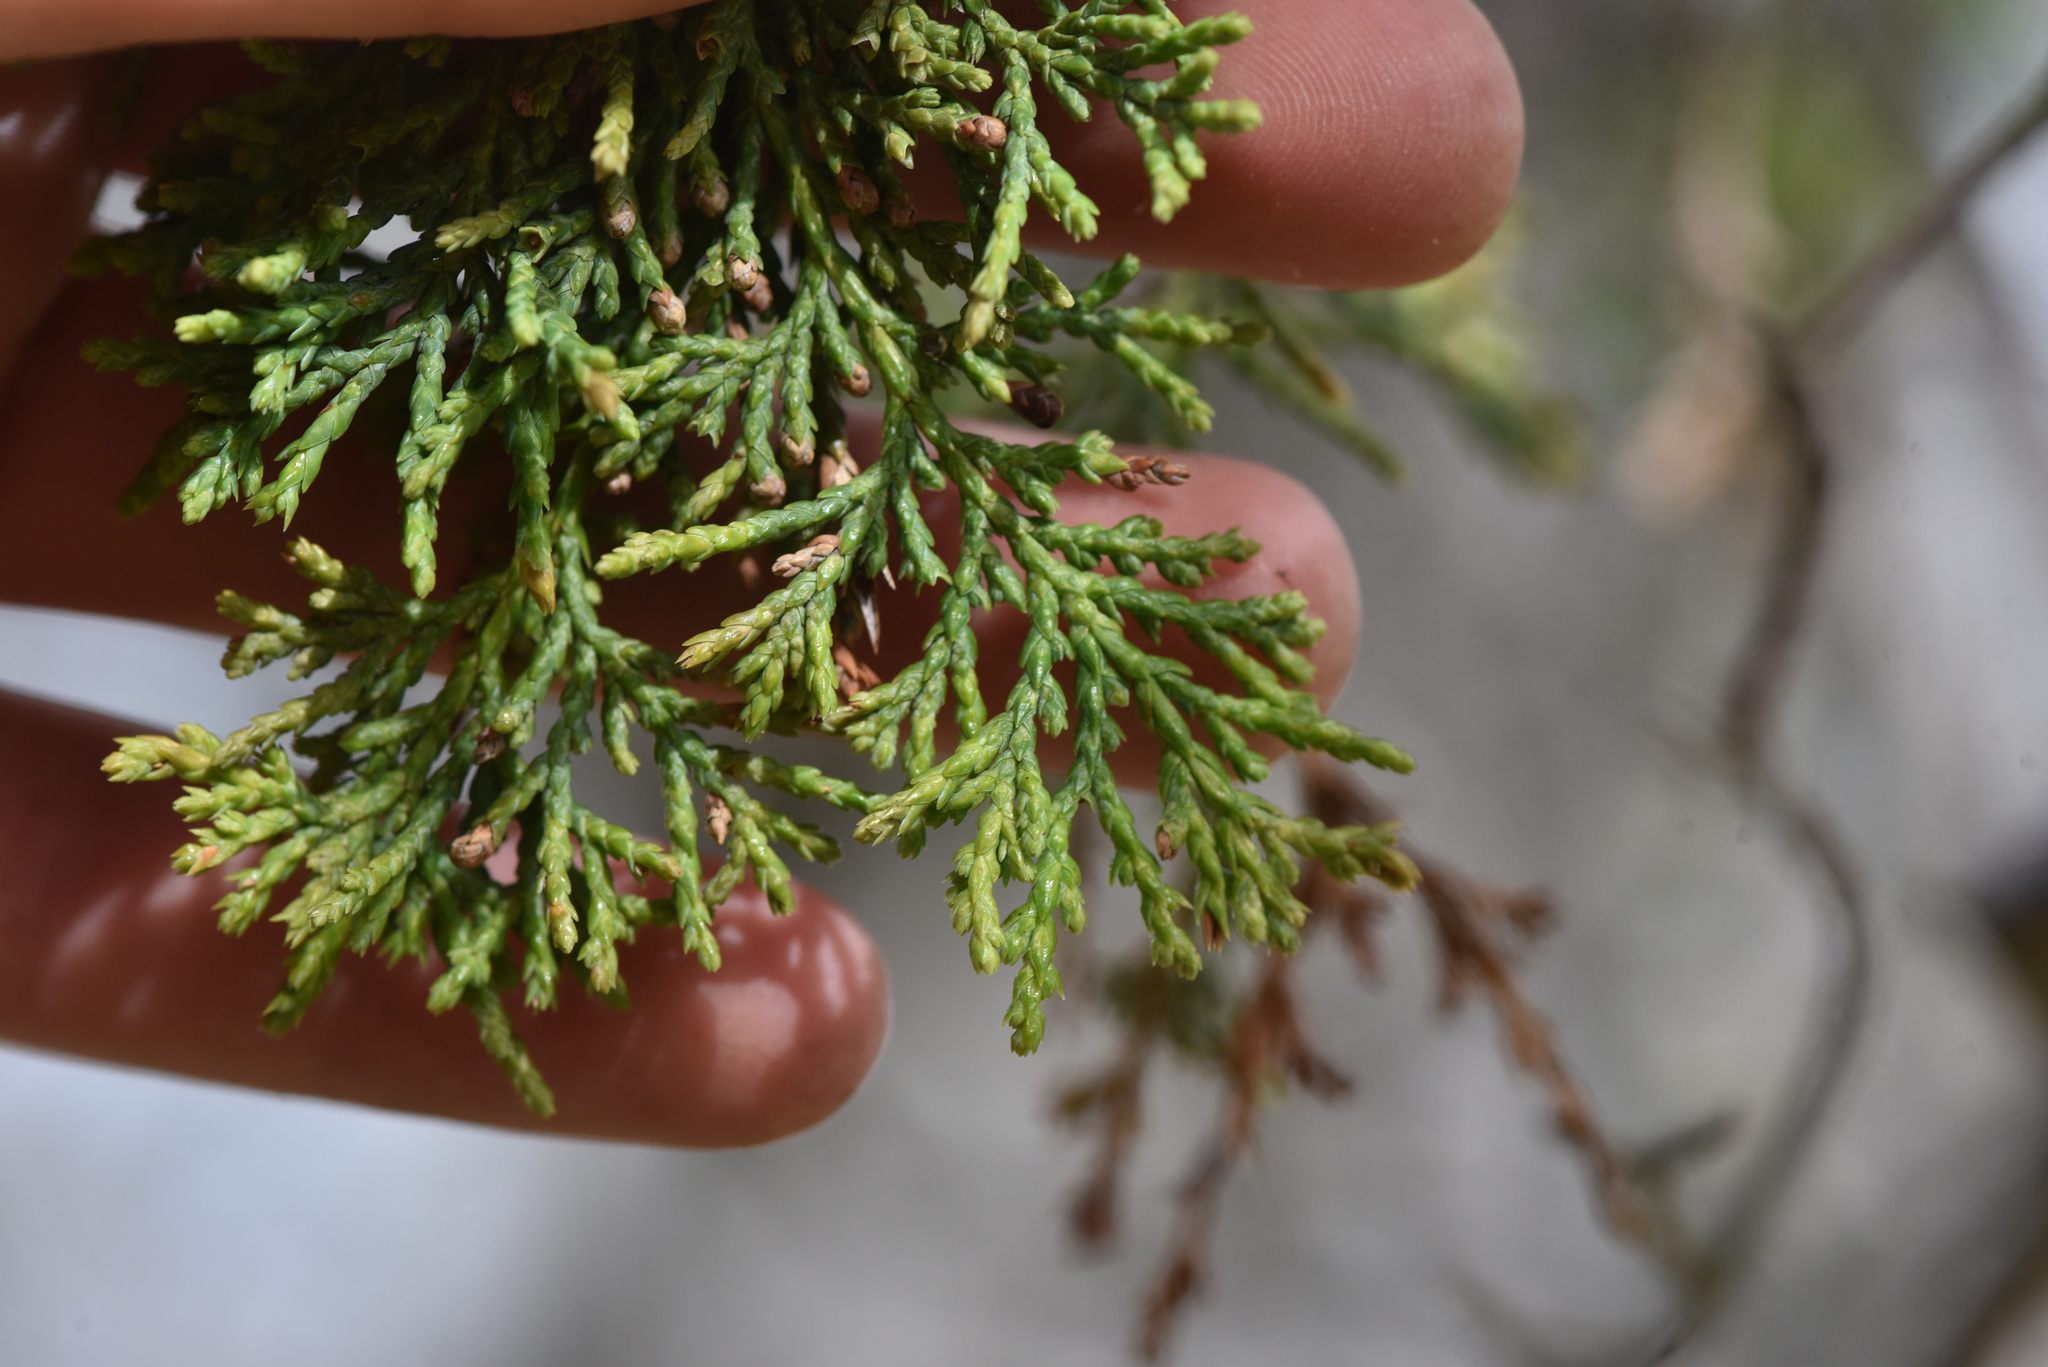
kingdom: Plantae
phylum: Tracheophyta
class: Pinopsida
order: Pinales
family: Cupressaceae
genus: Juniperus
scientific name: Juniperus scopulorum
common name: Rocky mountain juniper
